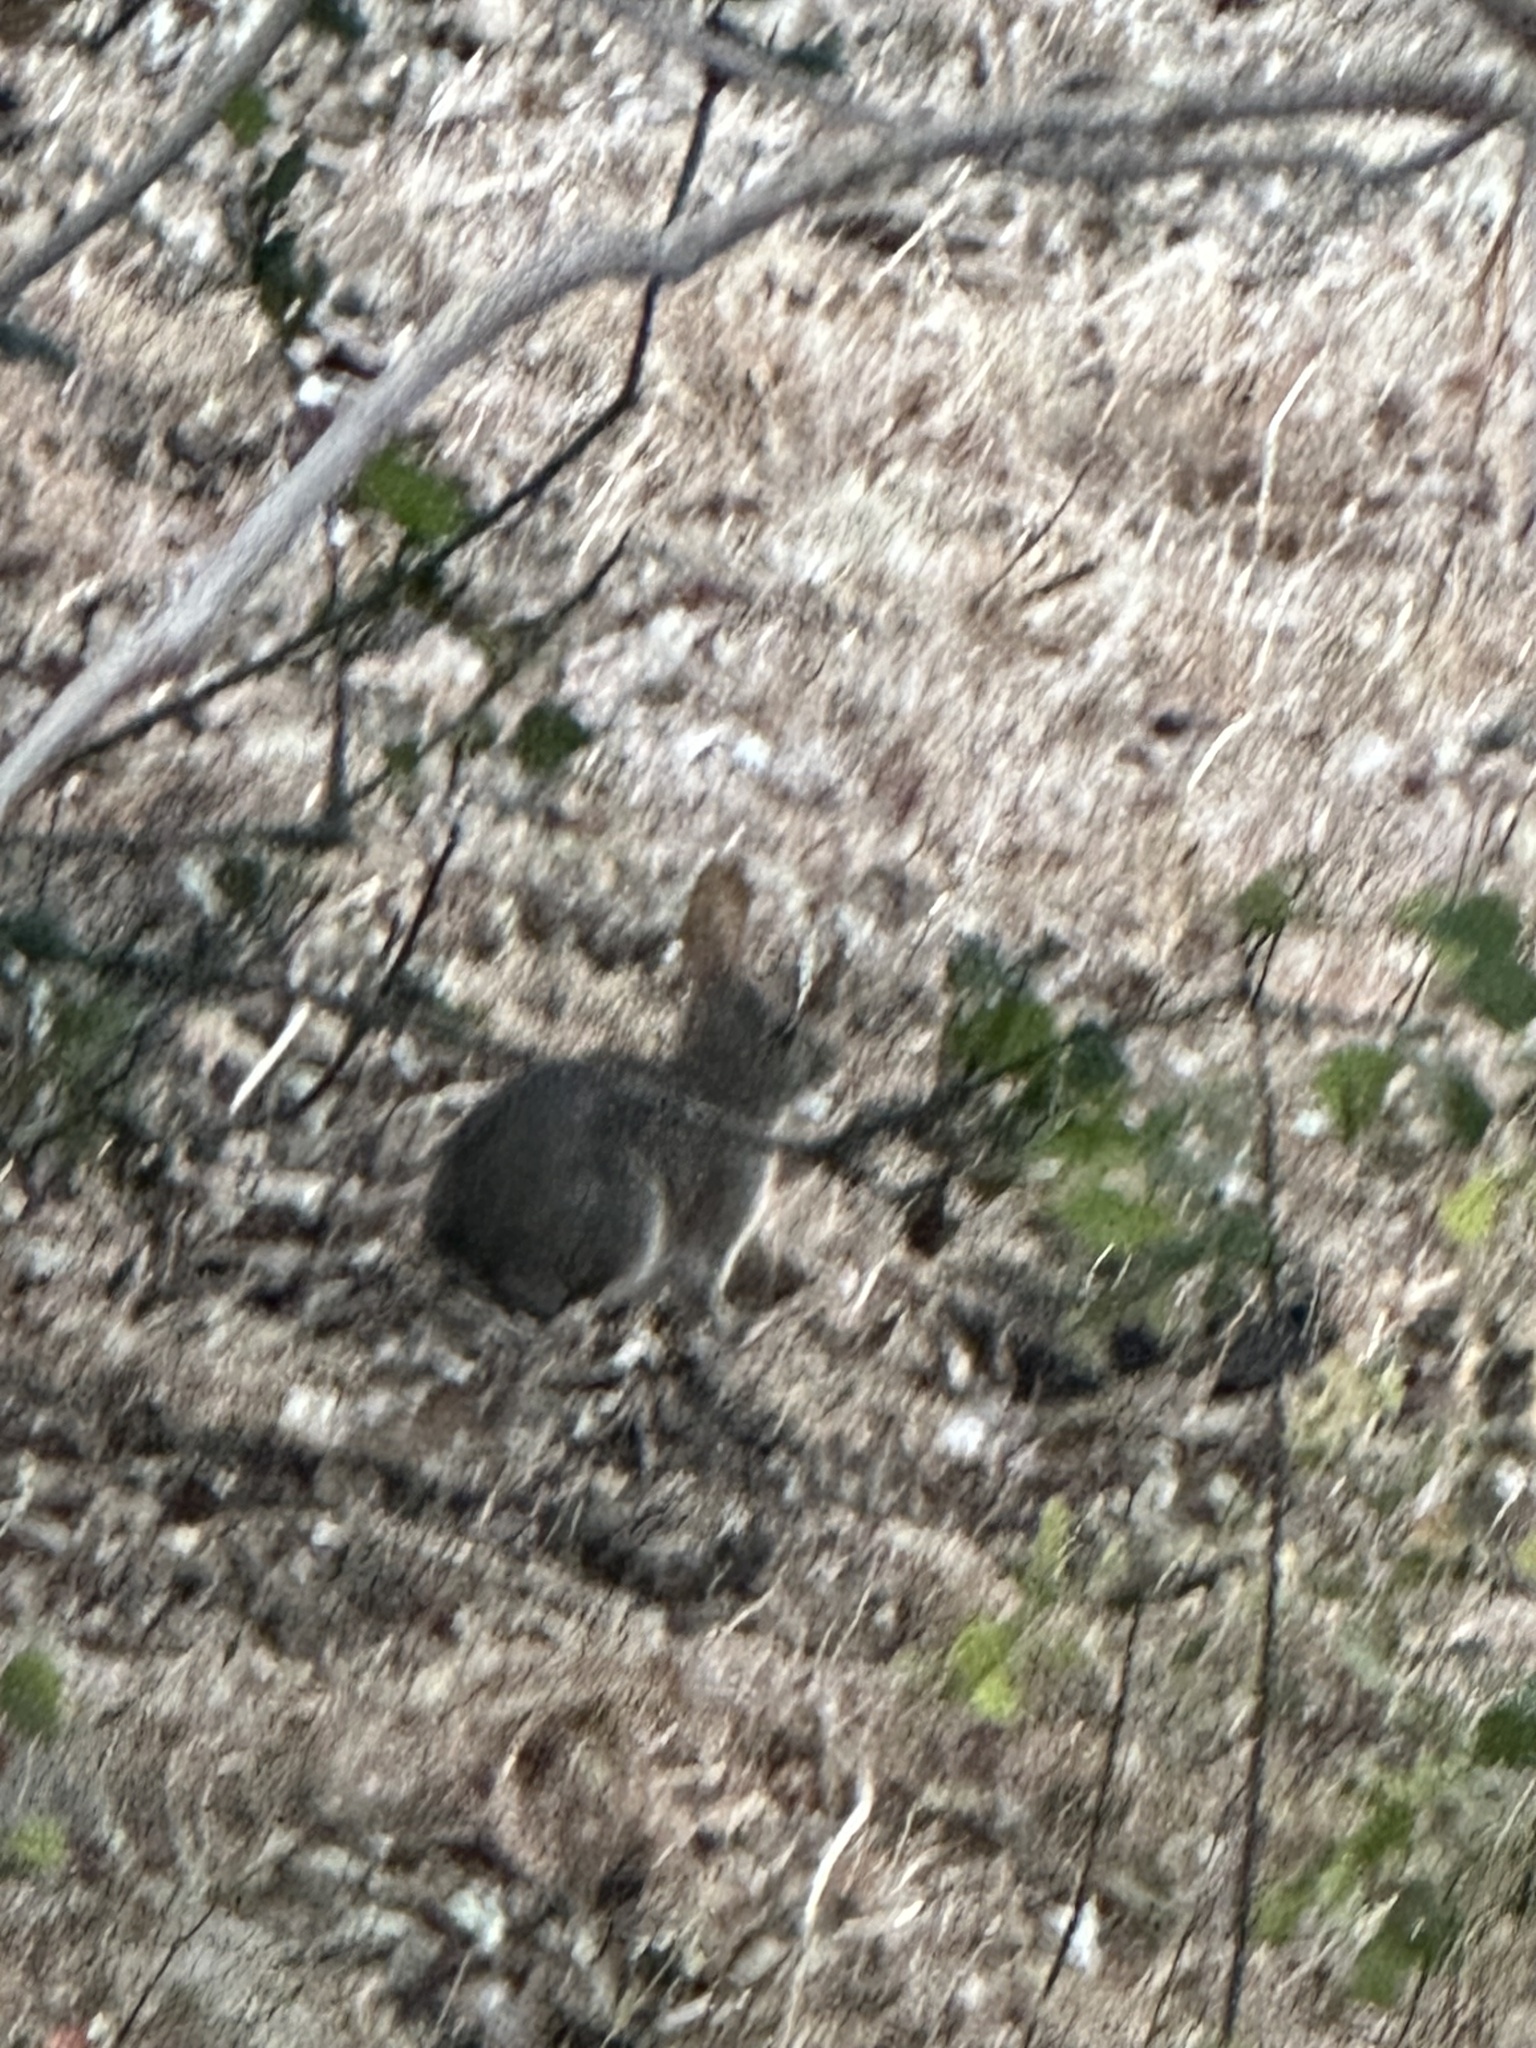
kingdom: Animalia
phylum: Chordata
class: Mammalia
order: Lagomorpha
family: Leporidae
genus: Sylvilagus
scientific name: Sylvilagus bachmani
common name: Brush rabbit
